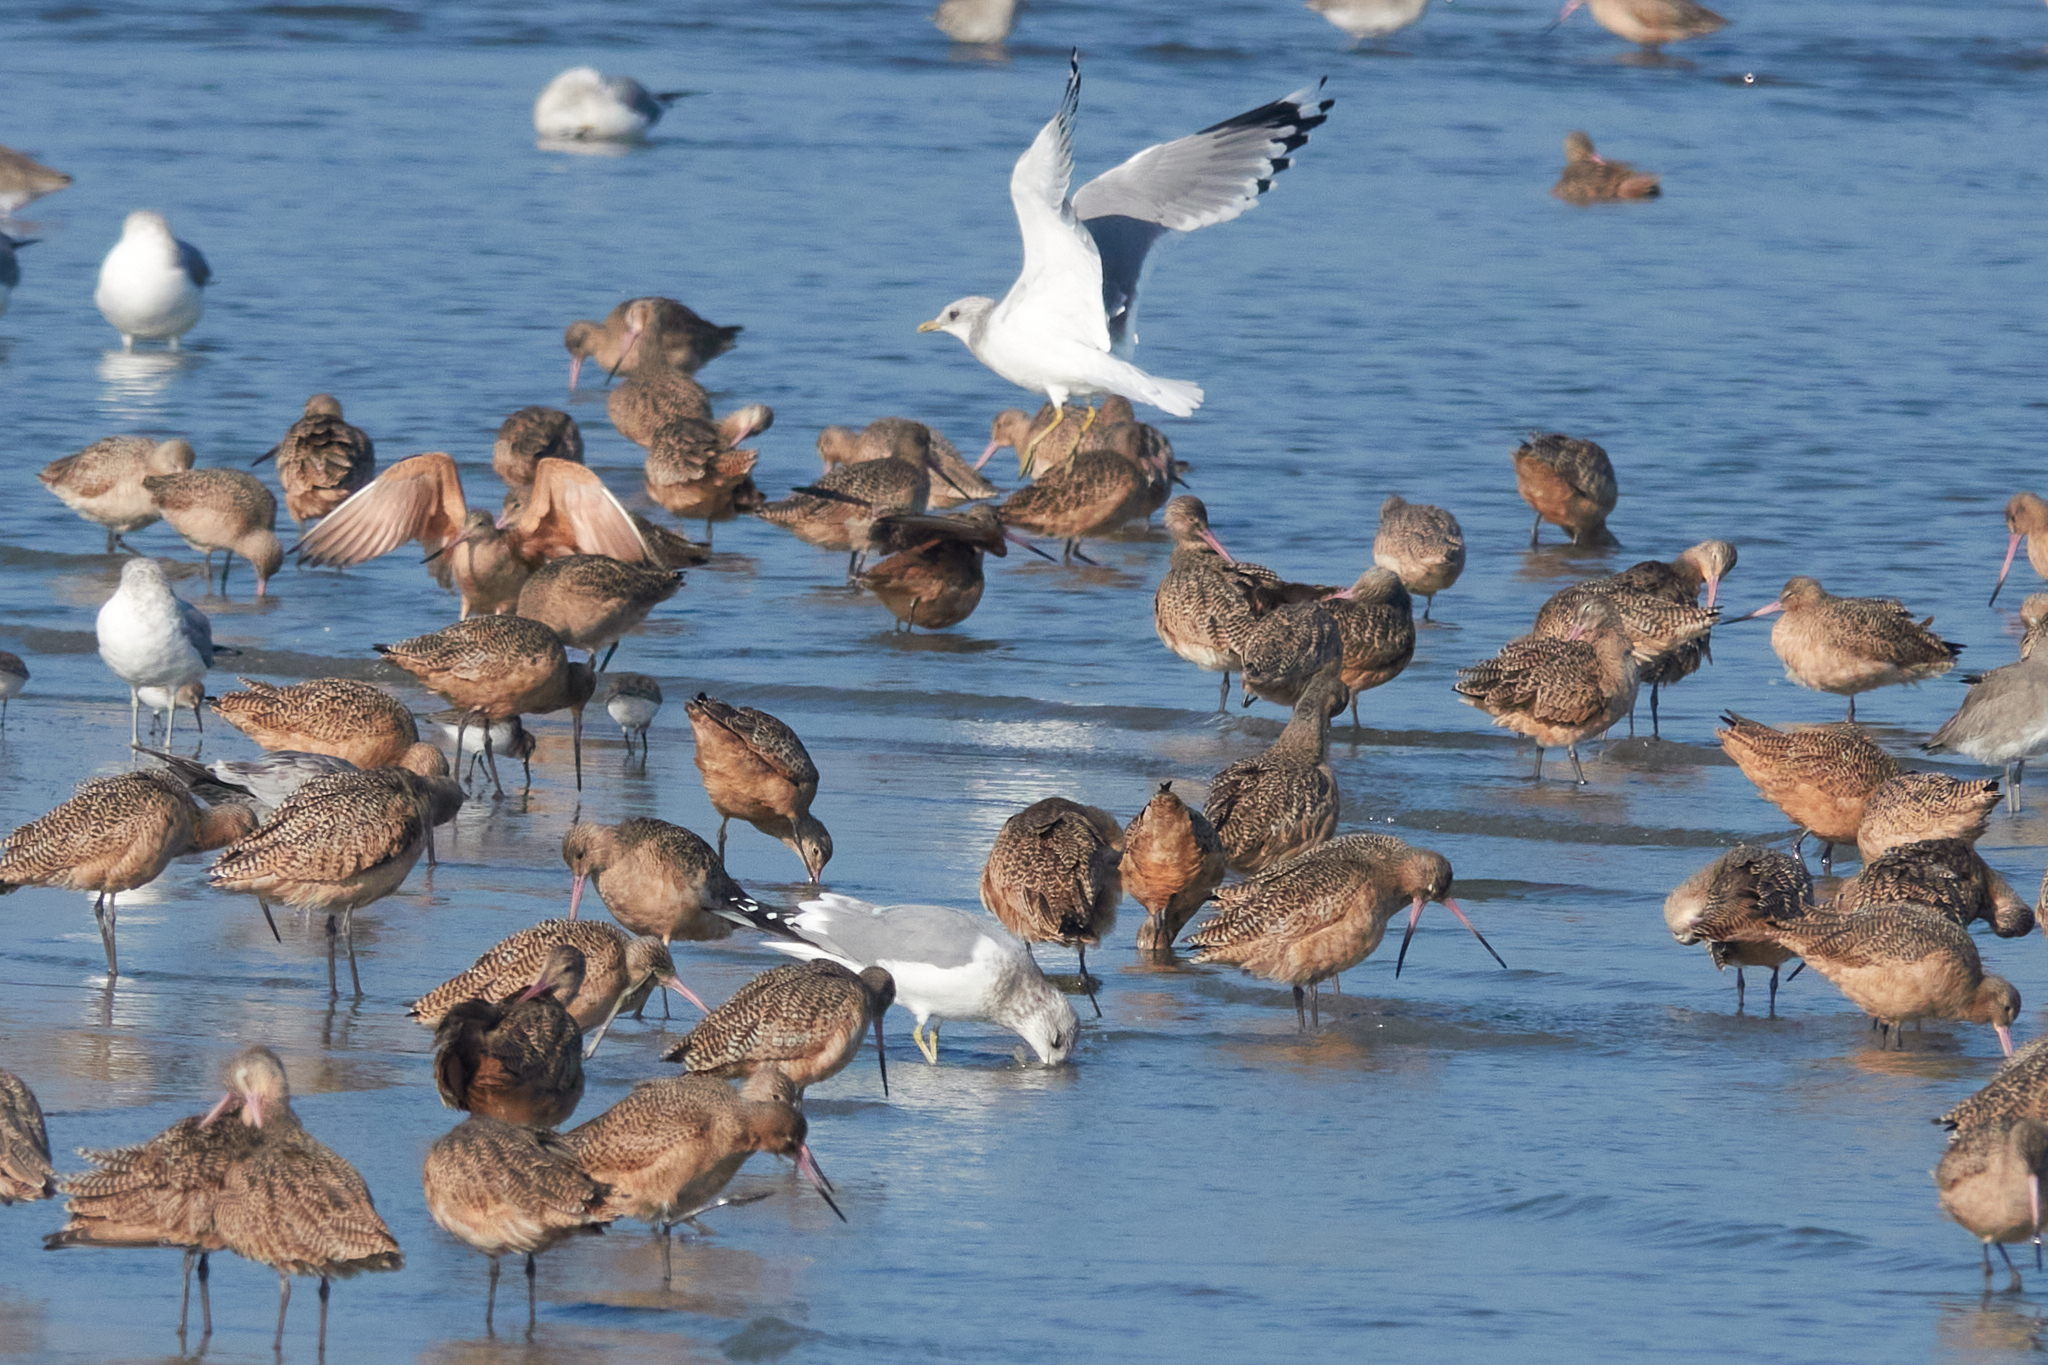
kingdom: Animalia
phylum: Chordata
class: Aves
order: Charadriiformes
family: Scolopacidae
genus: Limosa
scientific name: Limosa fedoa
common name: Marbled godwit
